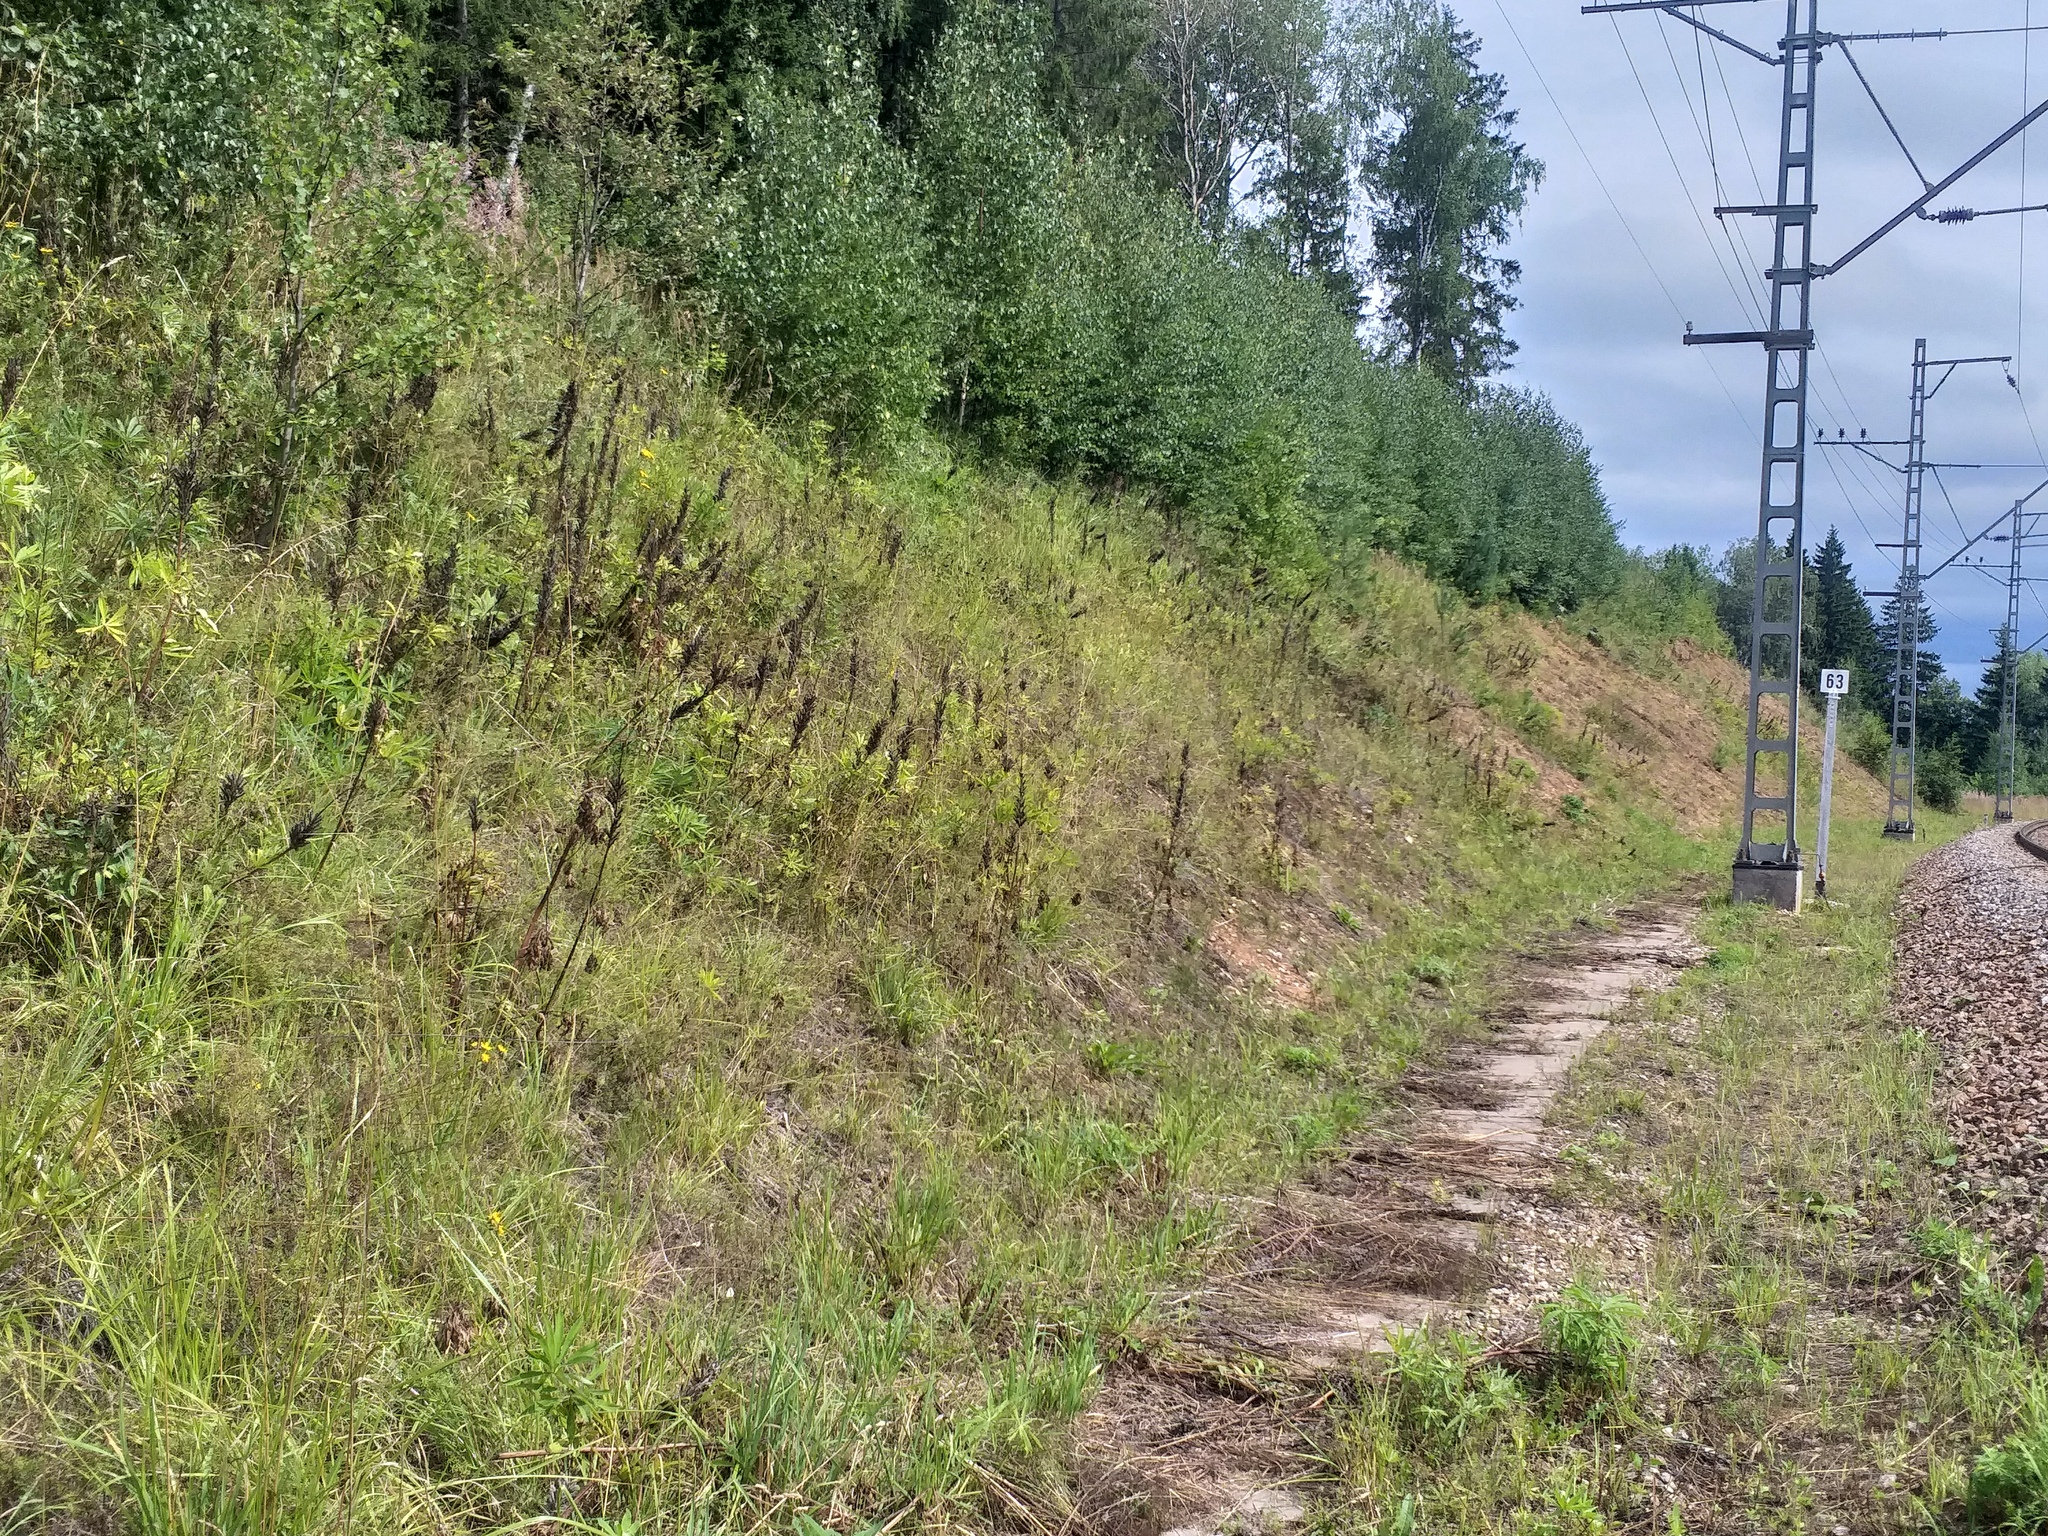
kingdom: Plantae
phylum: Tracheophyta
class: Magnoliopsida
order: Fabales
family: Fabaceae
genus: Lupinus
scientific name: Lupinus polyphyllus
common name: Garden lupin
